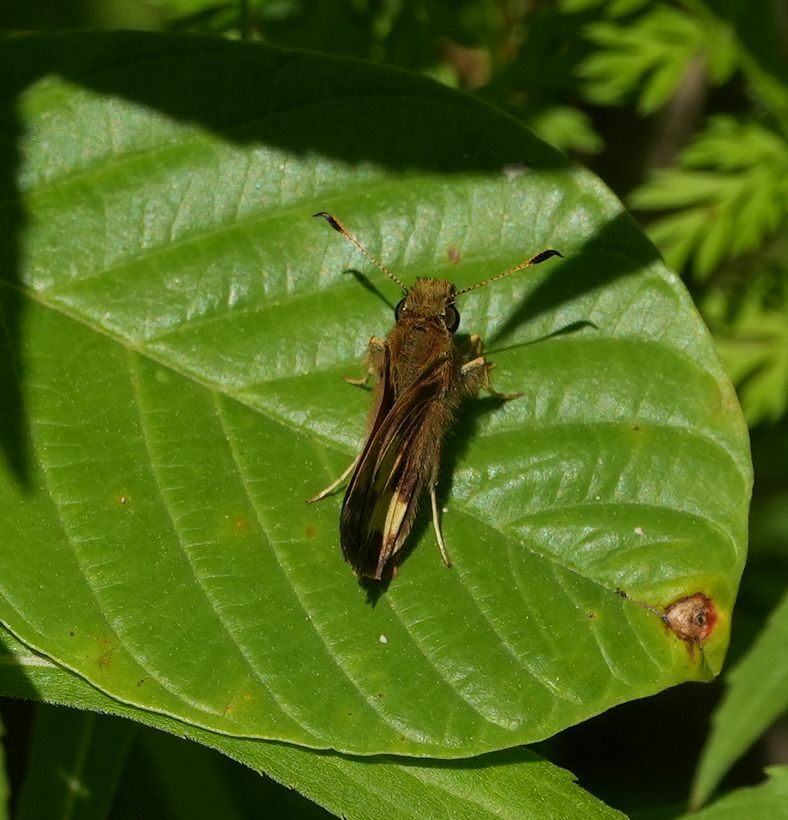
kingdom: Animalia
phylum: Arthropoda
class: Insecta
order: Lepidoptera
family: Hesperiidae
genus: Lon
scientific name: Lon hobomok
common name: Hobomok skipper
